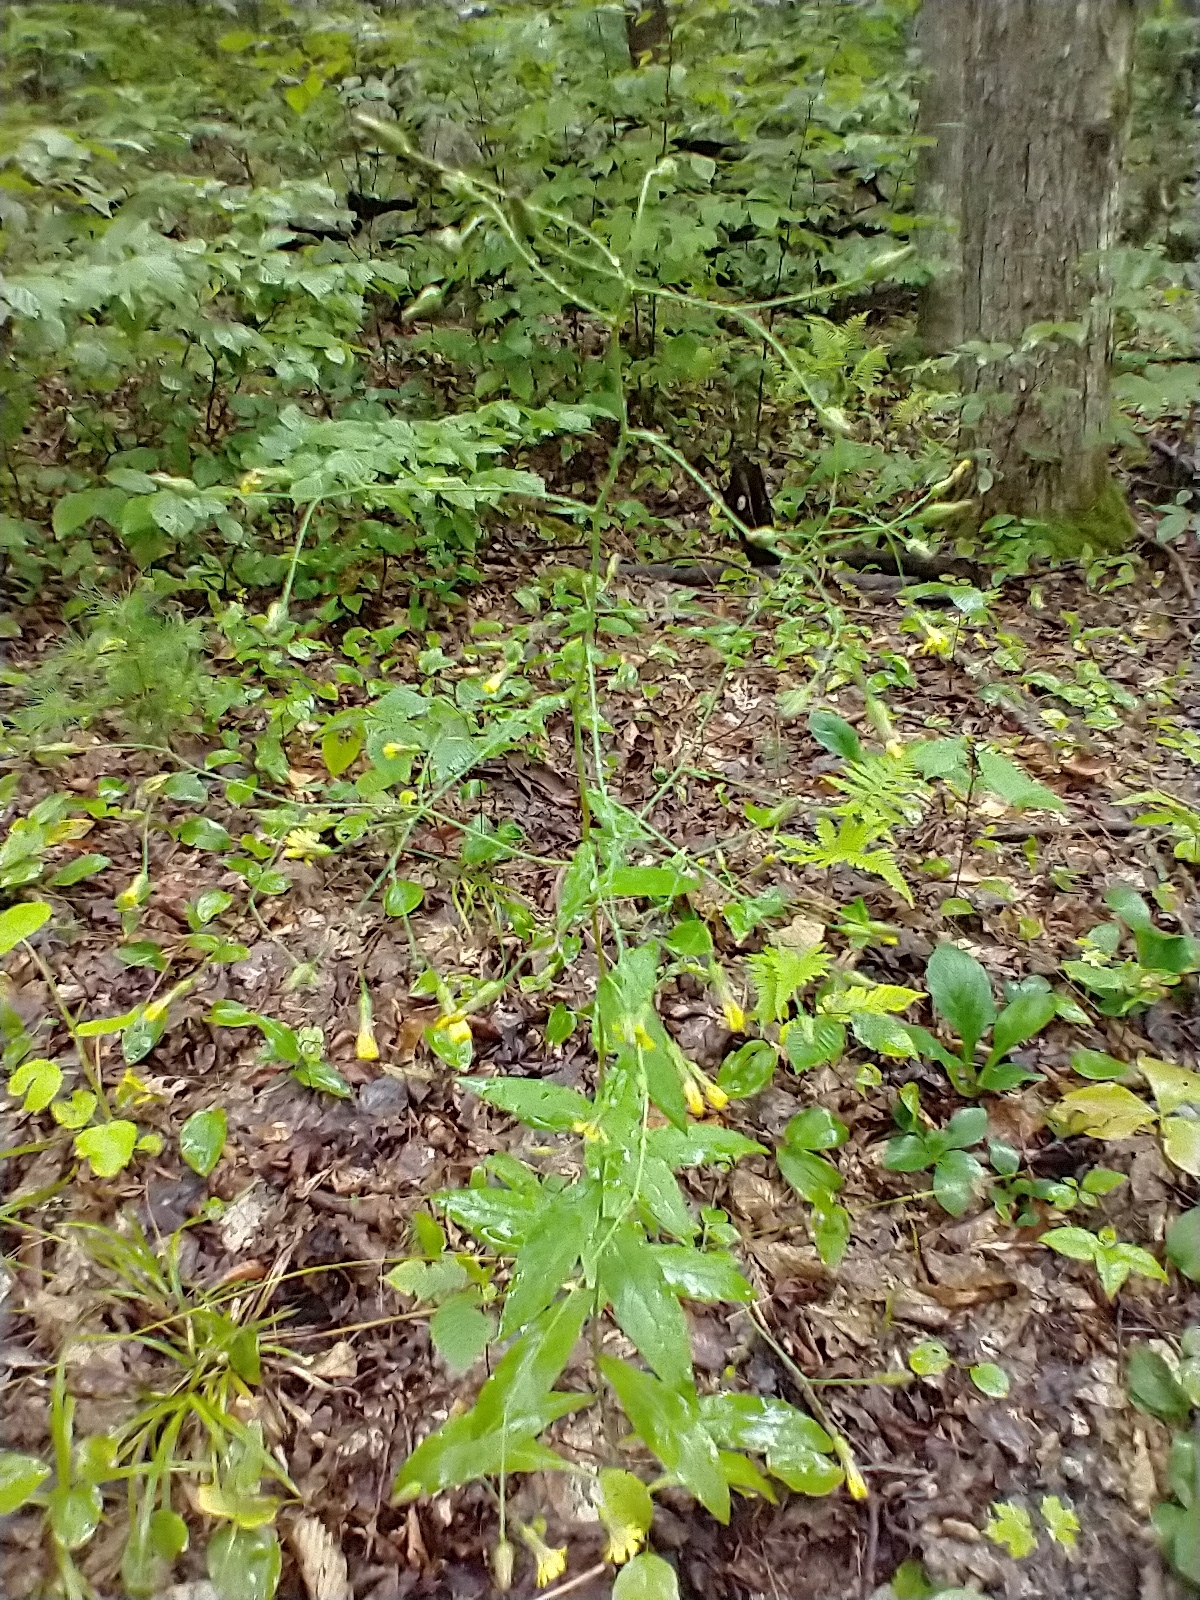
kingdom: Plantae
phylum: Tracheophyta
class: Magnoliopsida
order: Asterales
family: Asteraceae
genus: Hieracium
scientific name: Hieracium paniculatum
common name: Allegheny hawkweed
